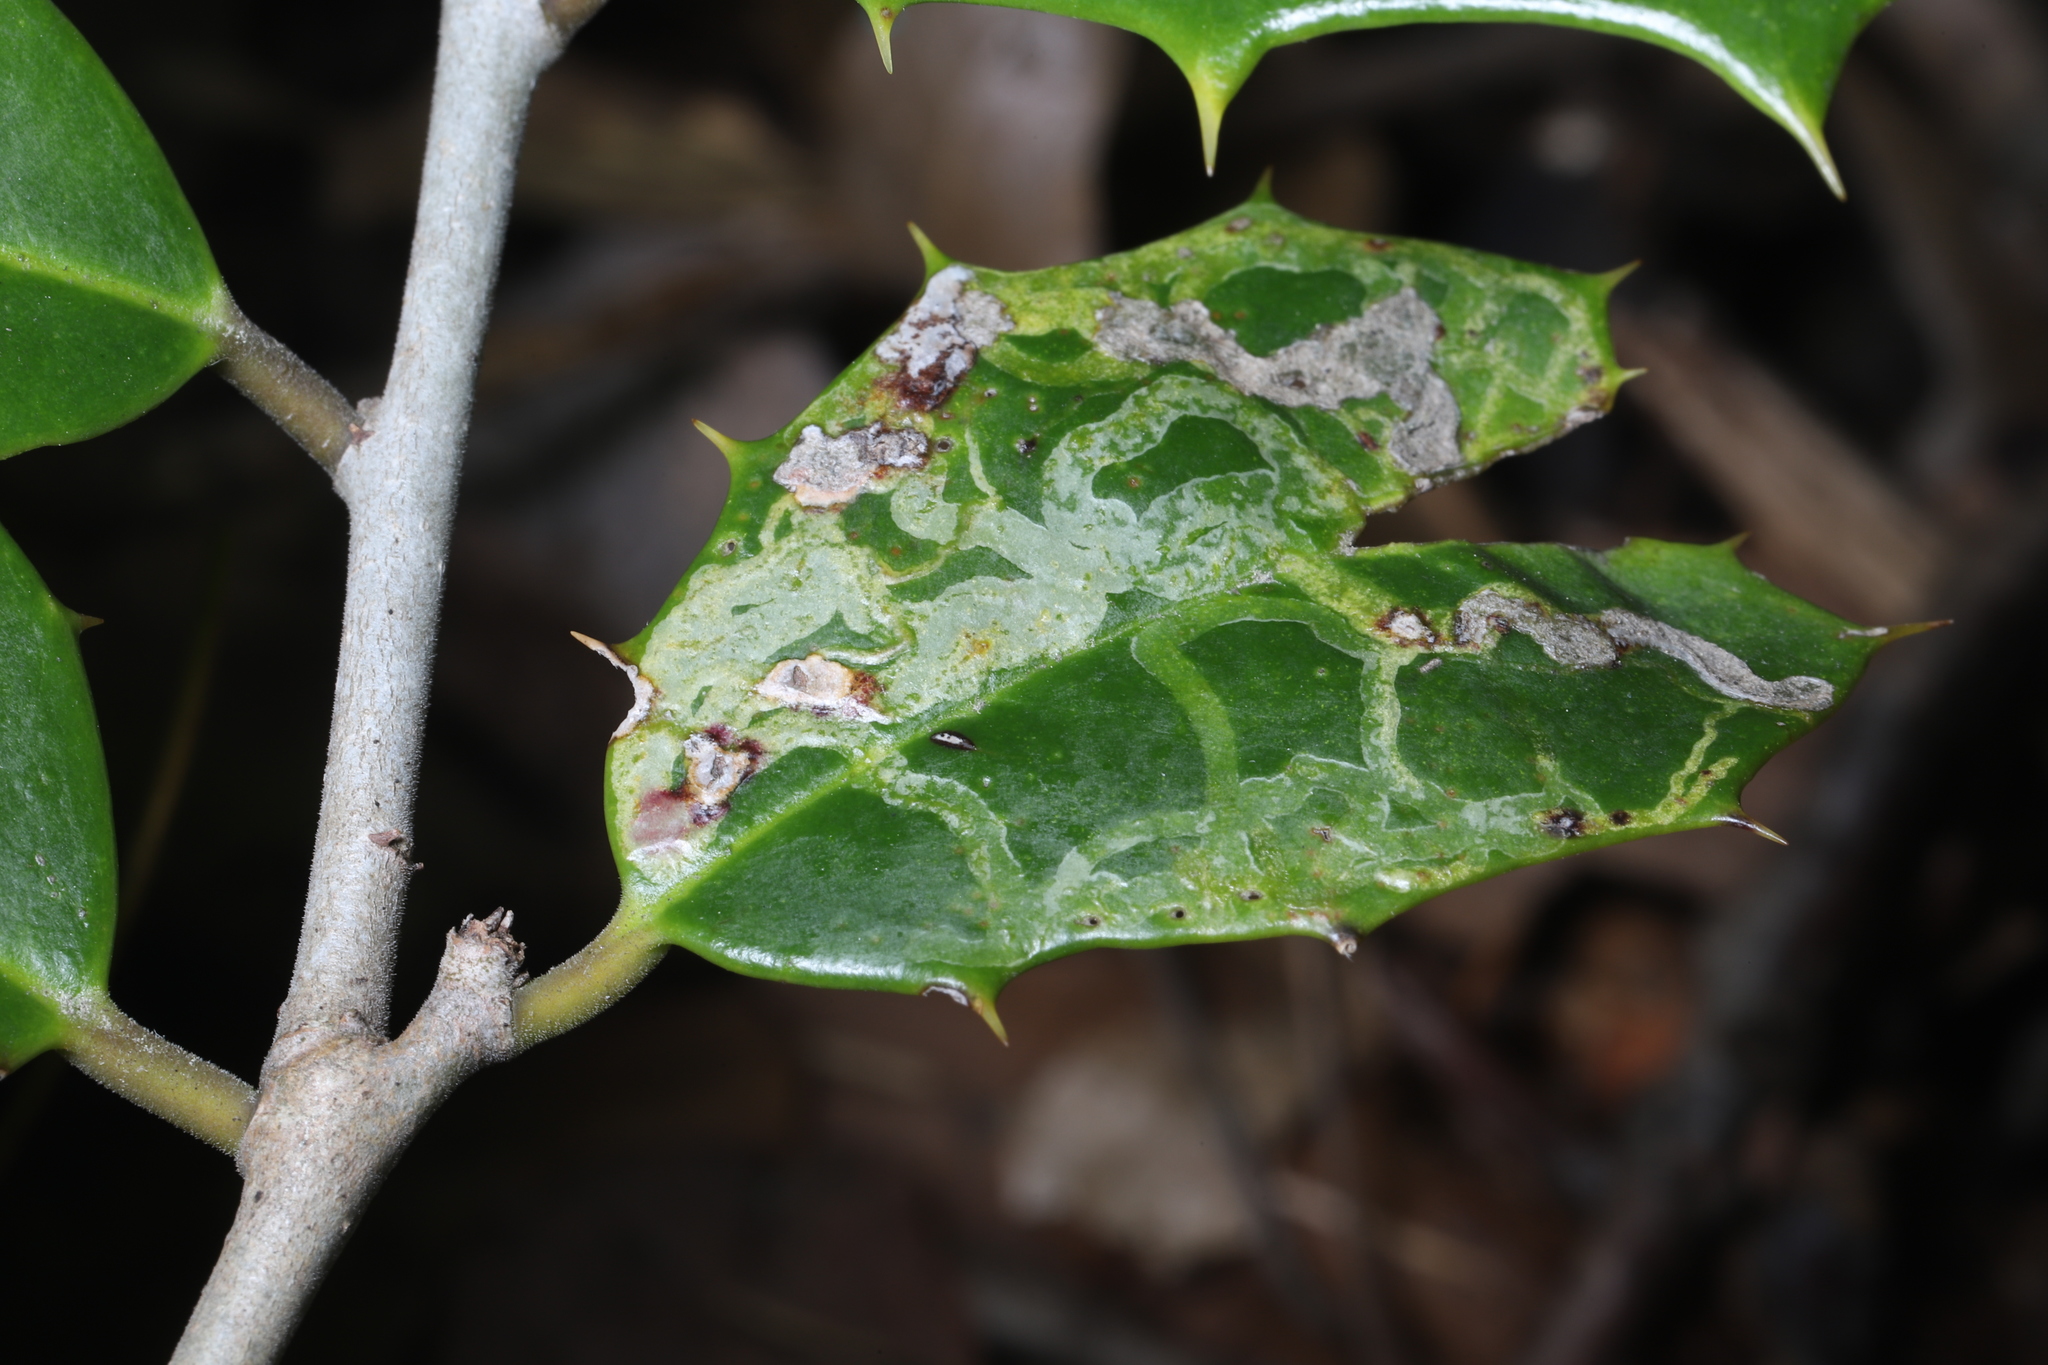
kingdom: Animalia
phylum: Arthropoda
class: Insecta
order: Diptera
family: Agromyzidae
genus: Phytomyza
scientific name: Phytomyza opacae
